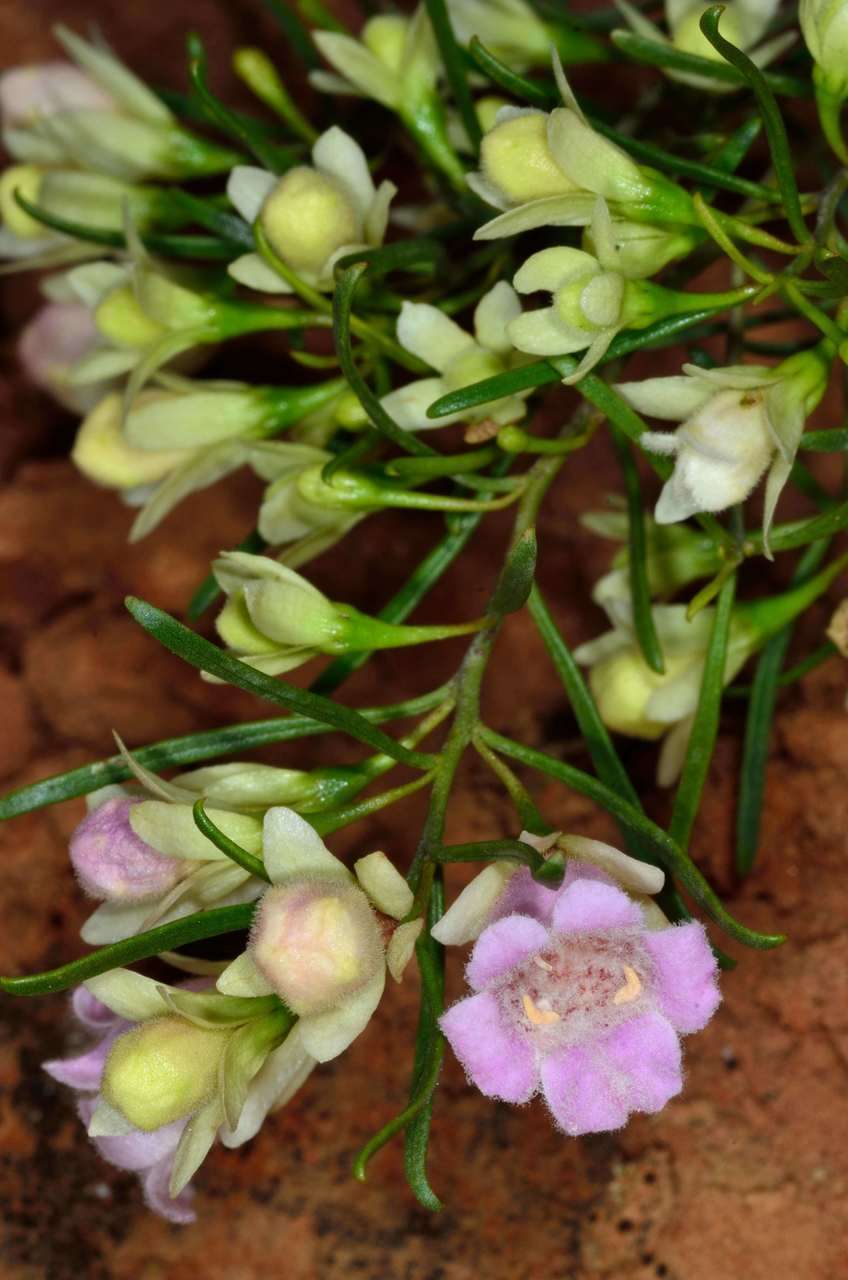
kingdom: Plantae
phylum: Tracheophyta
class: Magnoliopsida
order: Lamiales
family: Scrophulariaceae
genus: Eremophila
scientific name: Eremophila sturtii
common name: Narrow-leaf emubush
